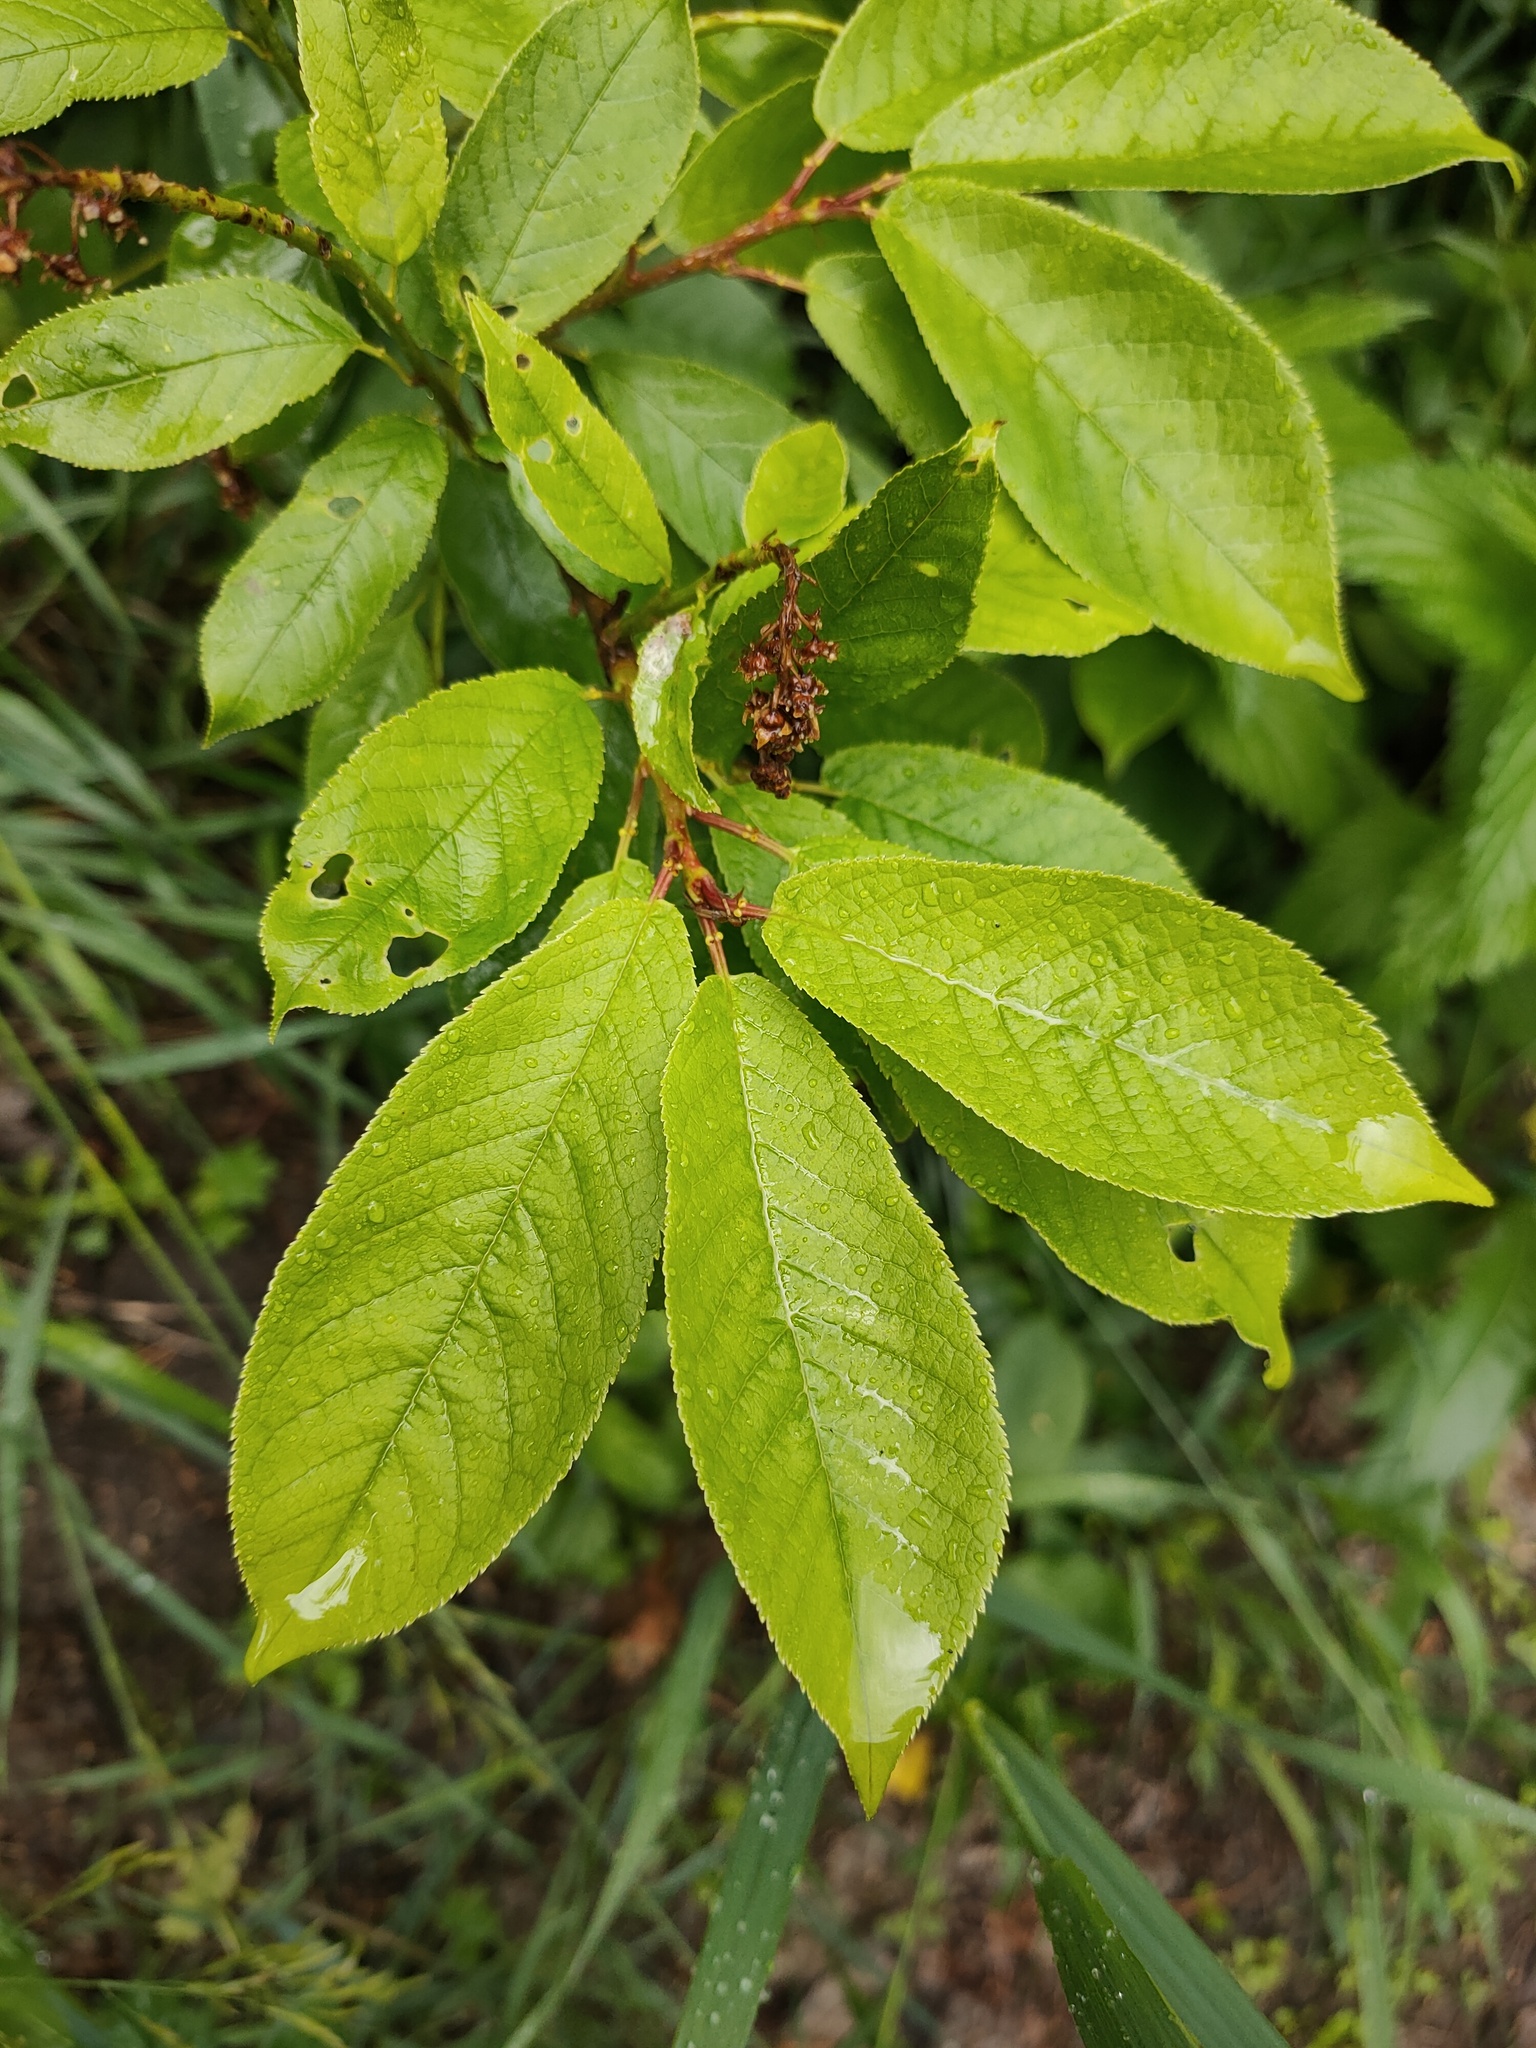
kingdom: Plantae
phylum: Tracheophyta
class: Magnoliopsida
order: Rosales
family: Rosaceae
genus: Prunus
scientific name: Prunus padus
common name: Bird cherry
